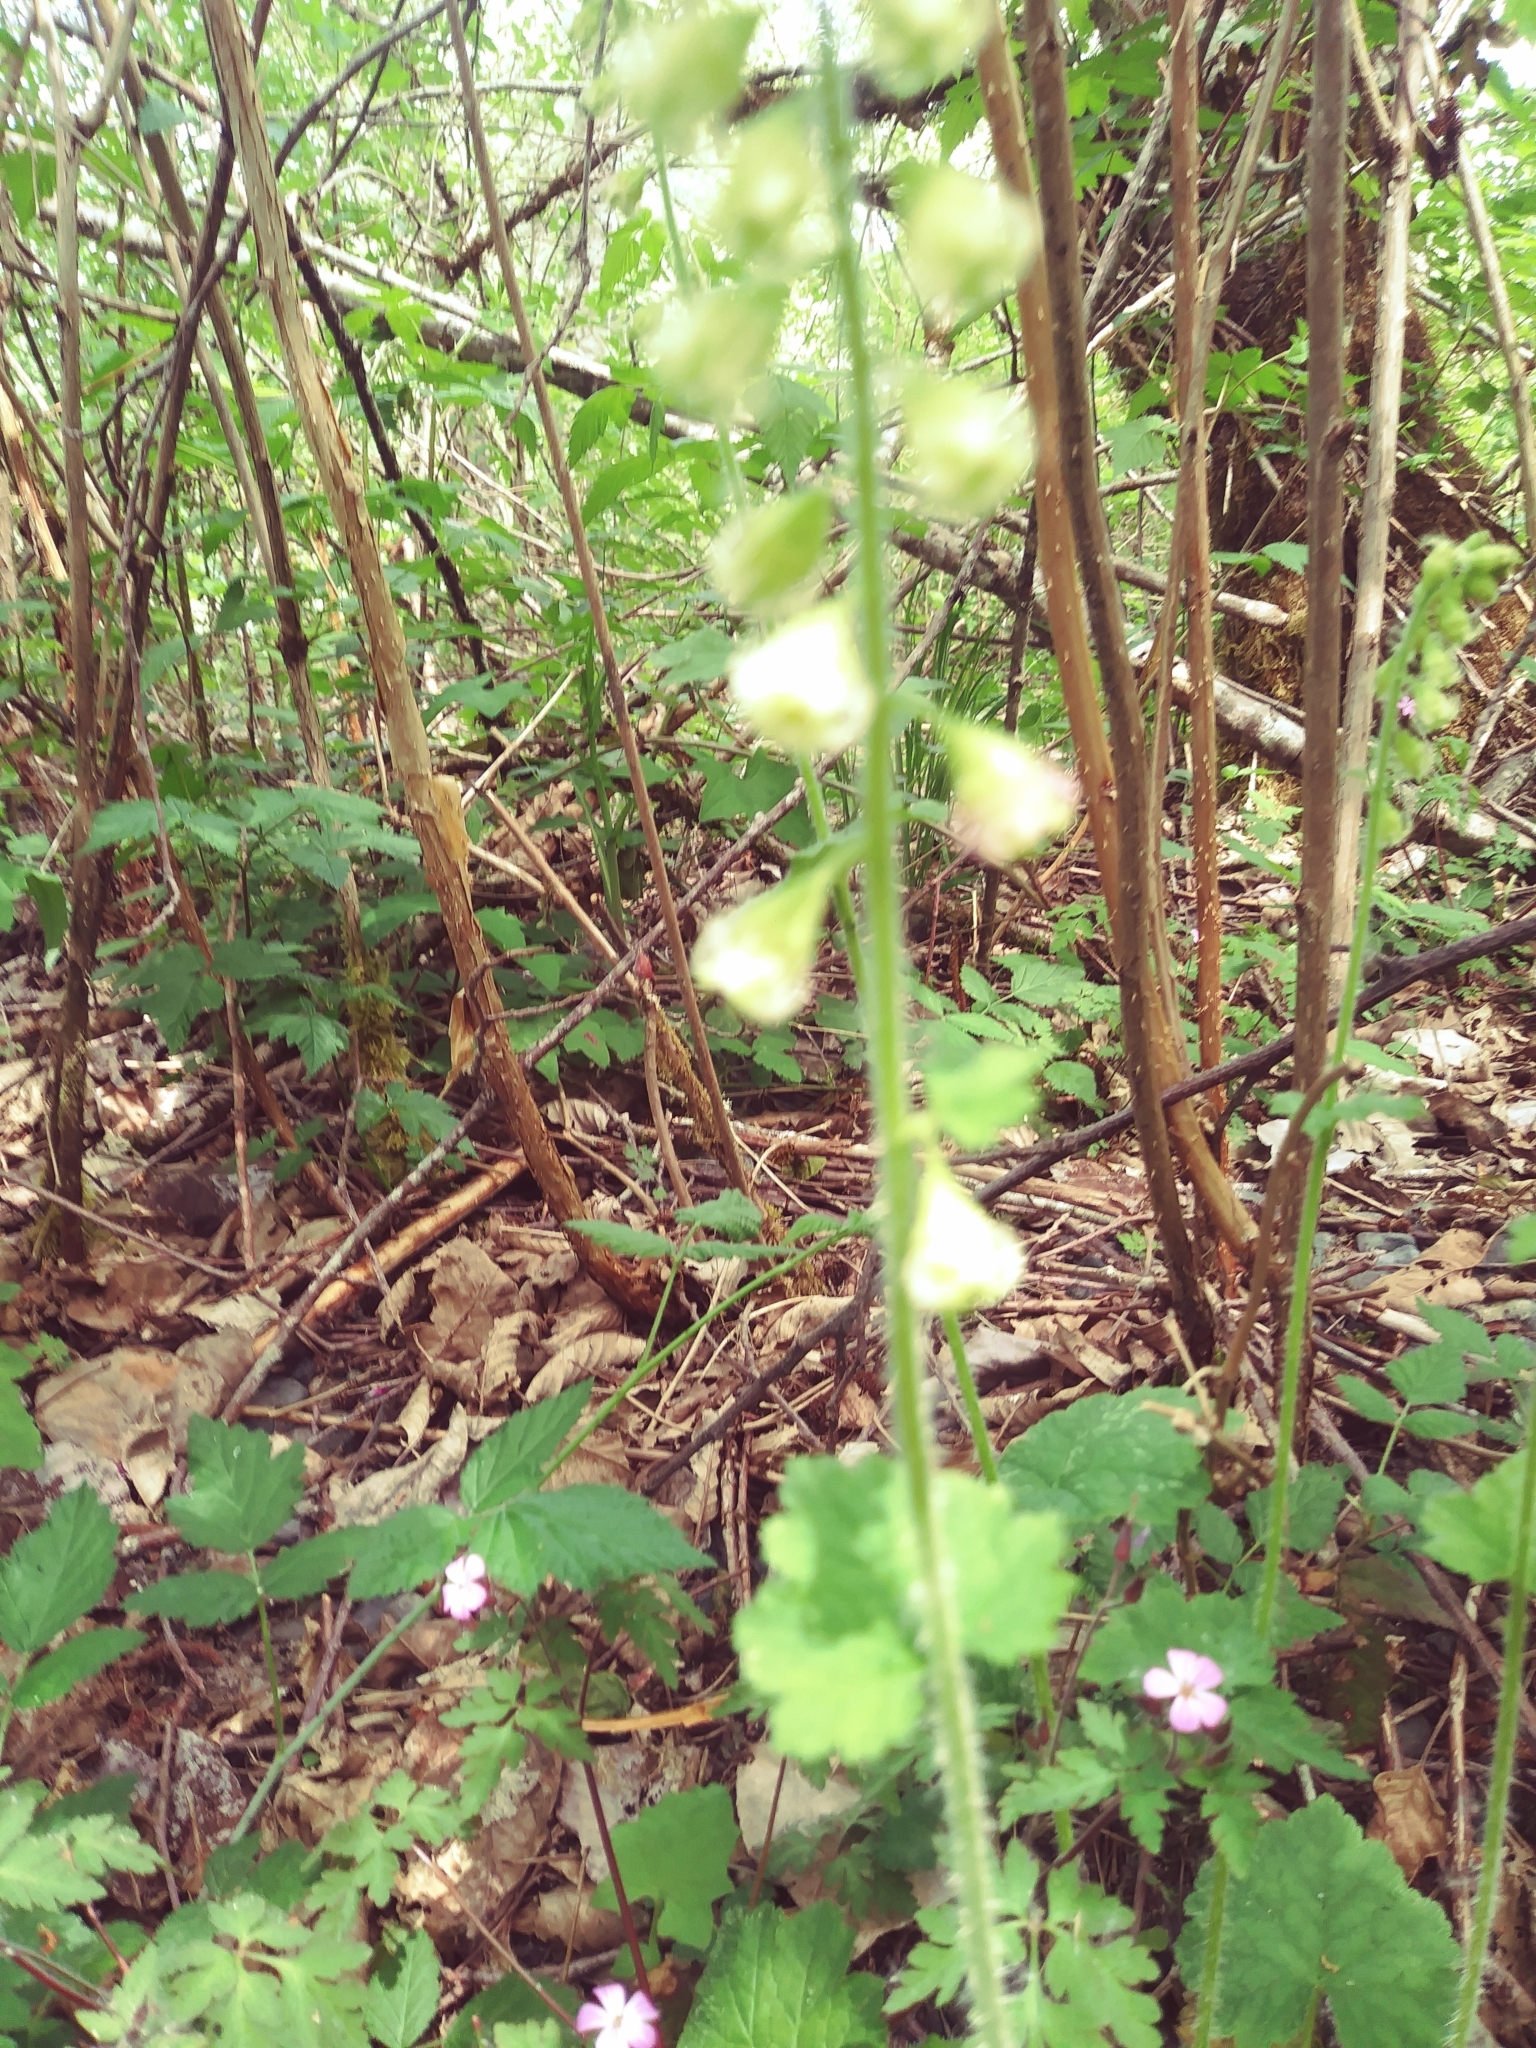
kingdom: Plantae
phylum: Tracheophyta
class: Magnoliopsida
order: Saxifragales
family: Saxifragaceae
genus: Tellima
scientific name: Tellima grandiflora
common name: Fringecups
